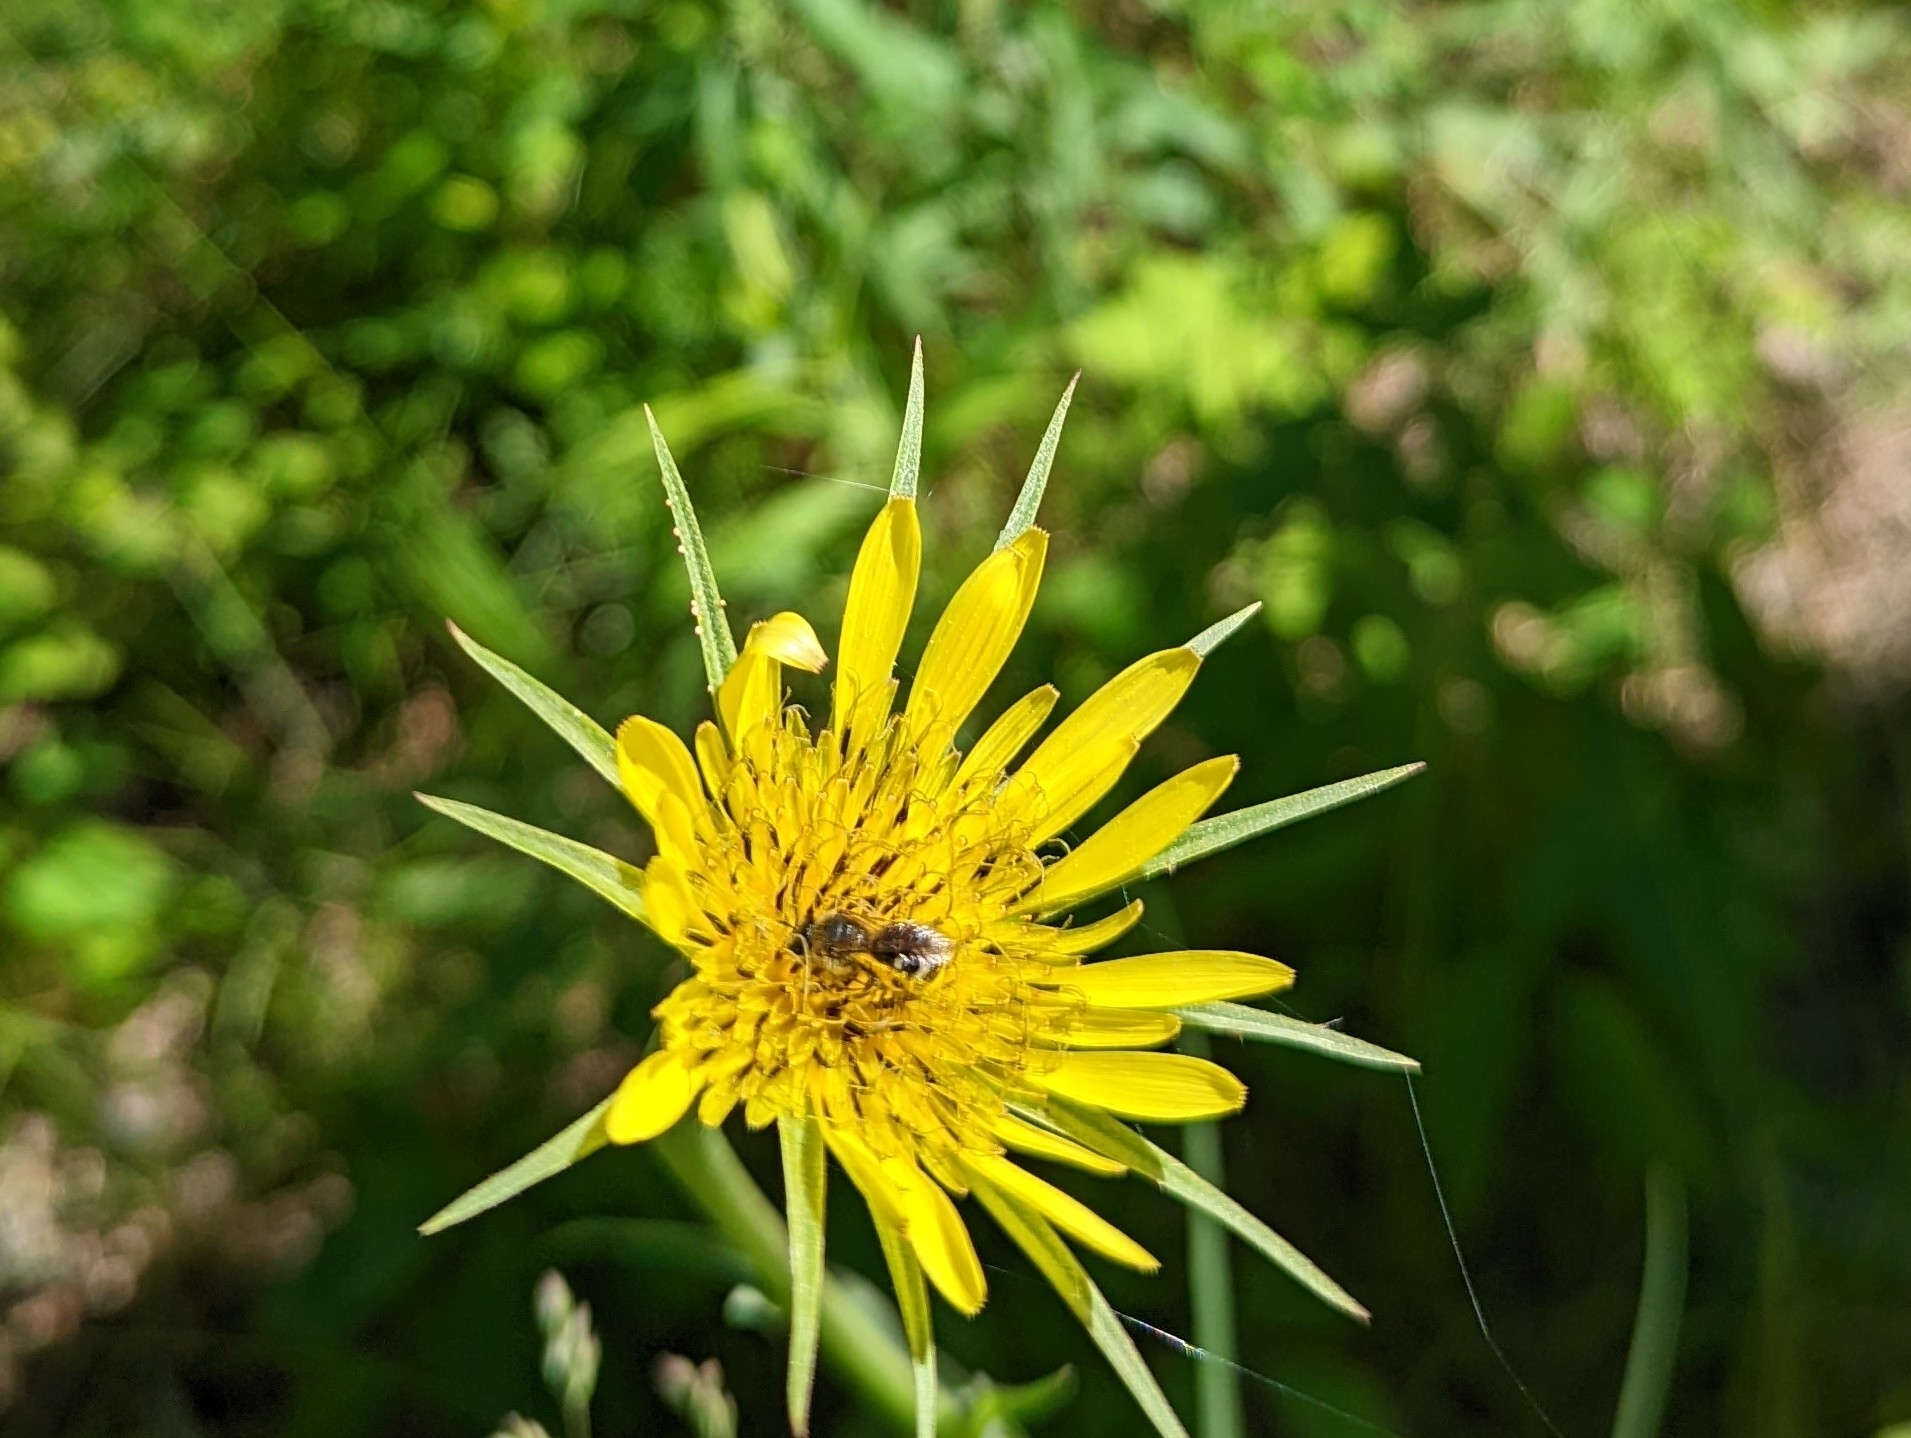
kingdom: Plantae
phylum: Tracheophyta
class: Magnoliopsida
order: Asterales
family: Asteraceae
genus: Tragopogon
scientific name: Tragopogon dubius
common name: Yellow salsify
